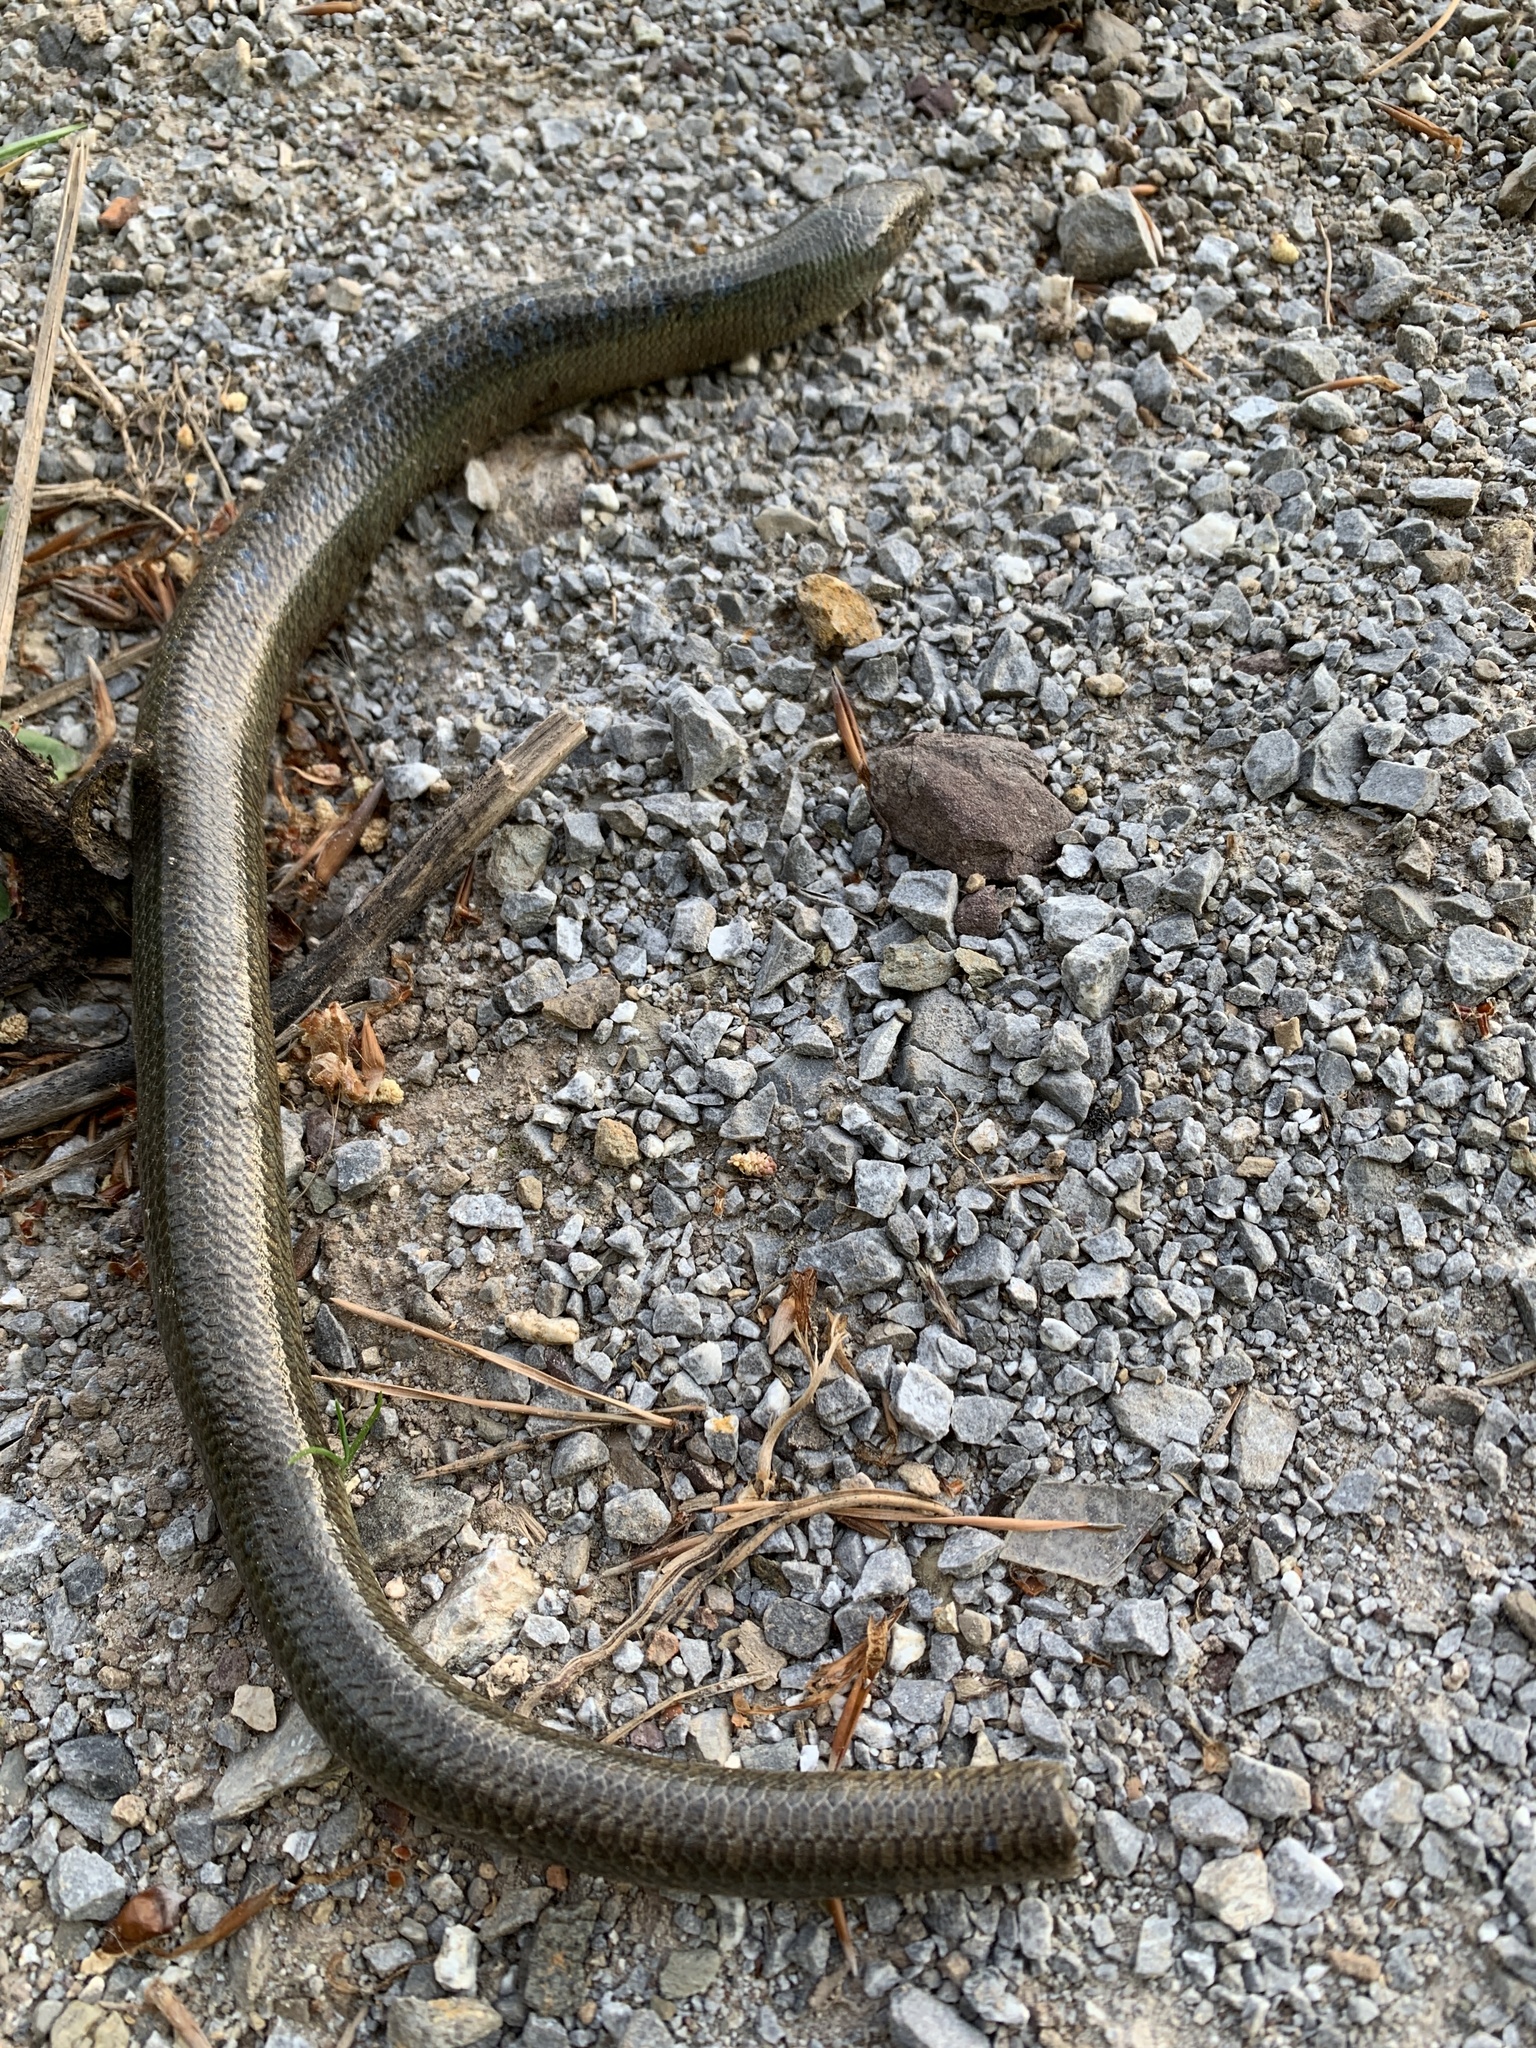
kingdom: Animalia
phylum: Chordata
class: Squamata
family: Anguidae
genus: Anguis
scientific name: Anguis colchica
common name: Slow worm
